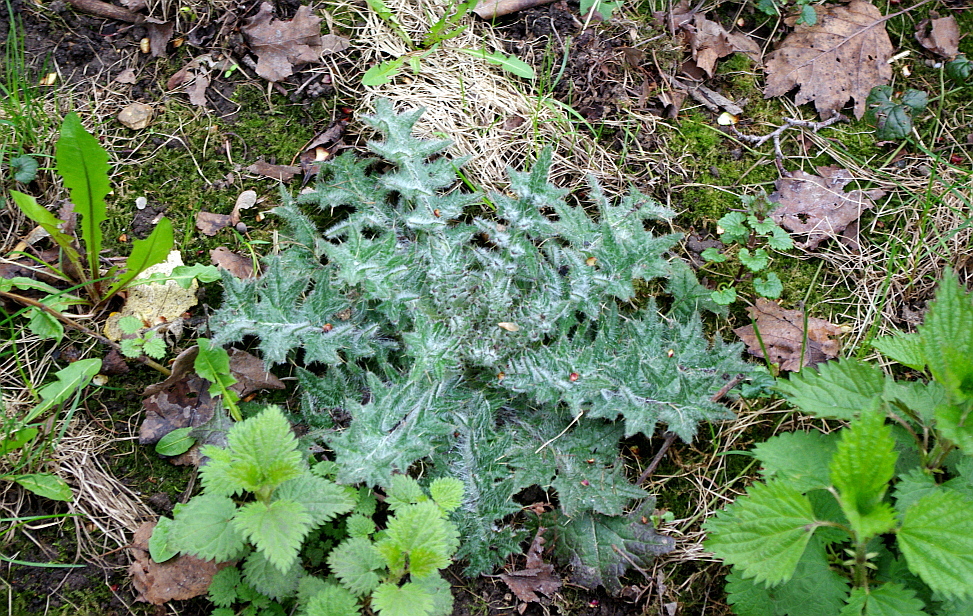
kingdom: Plantae
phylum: Tracheophyta
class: Magnoliopsida
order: Asterales
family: Asteraceae
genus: Cirsium
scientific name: Cirsium vulgare
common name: Bull thistle
